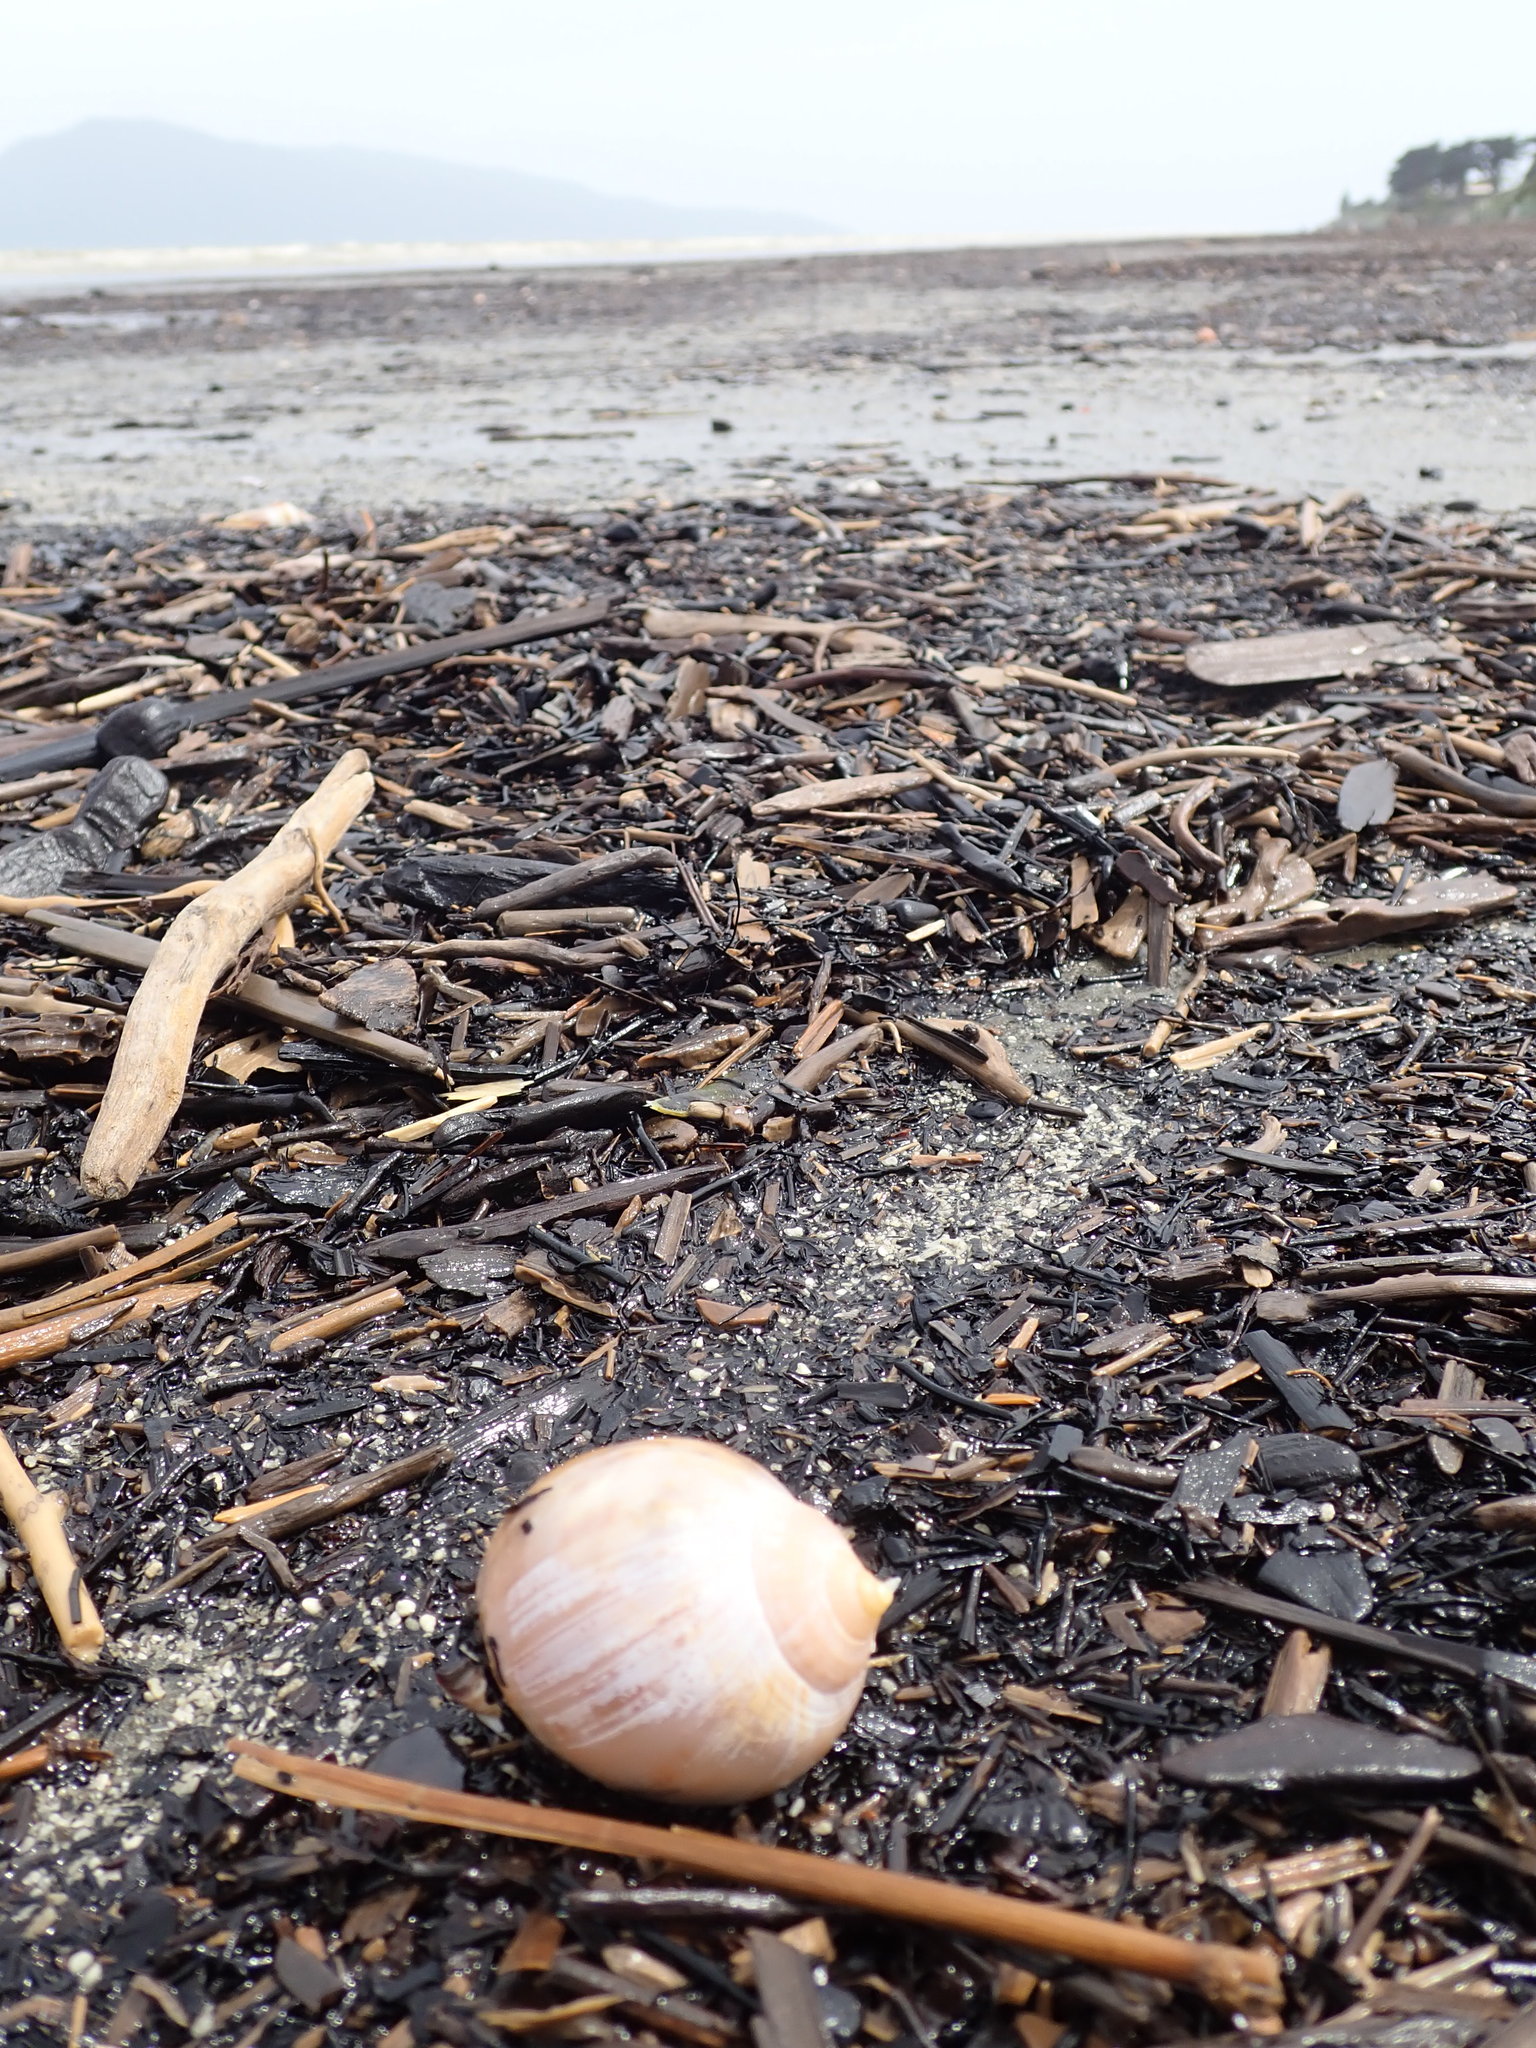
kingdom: Animalia
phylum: Mollusca
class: Gastropoda
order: Littorinimorpha
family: Cassidae
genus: Semicassis
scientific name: Semicassis pyrum
